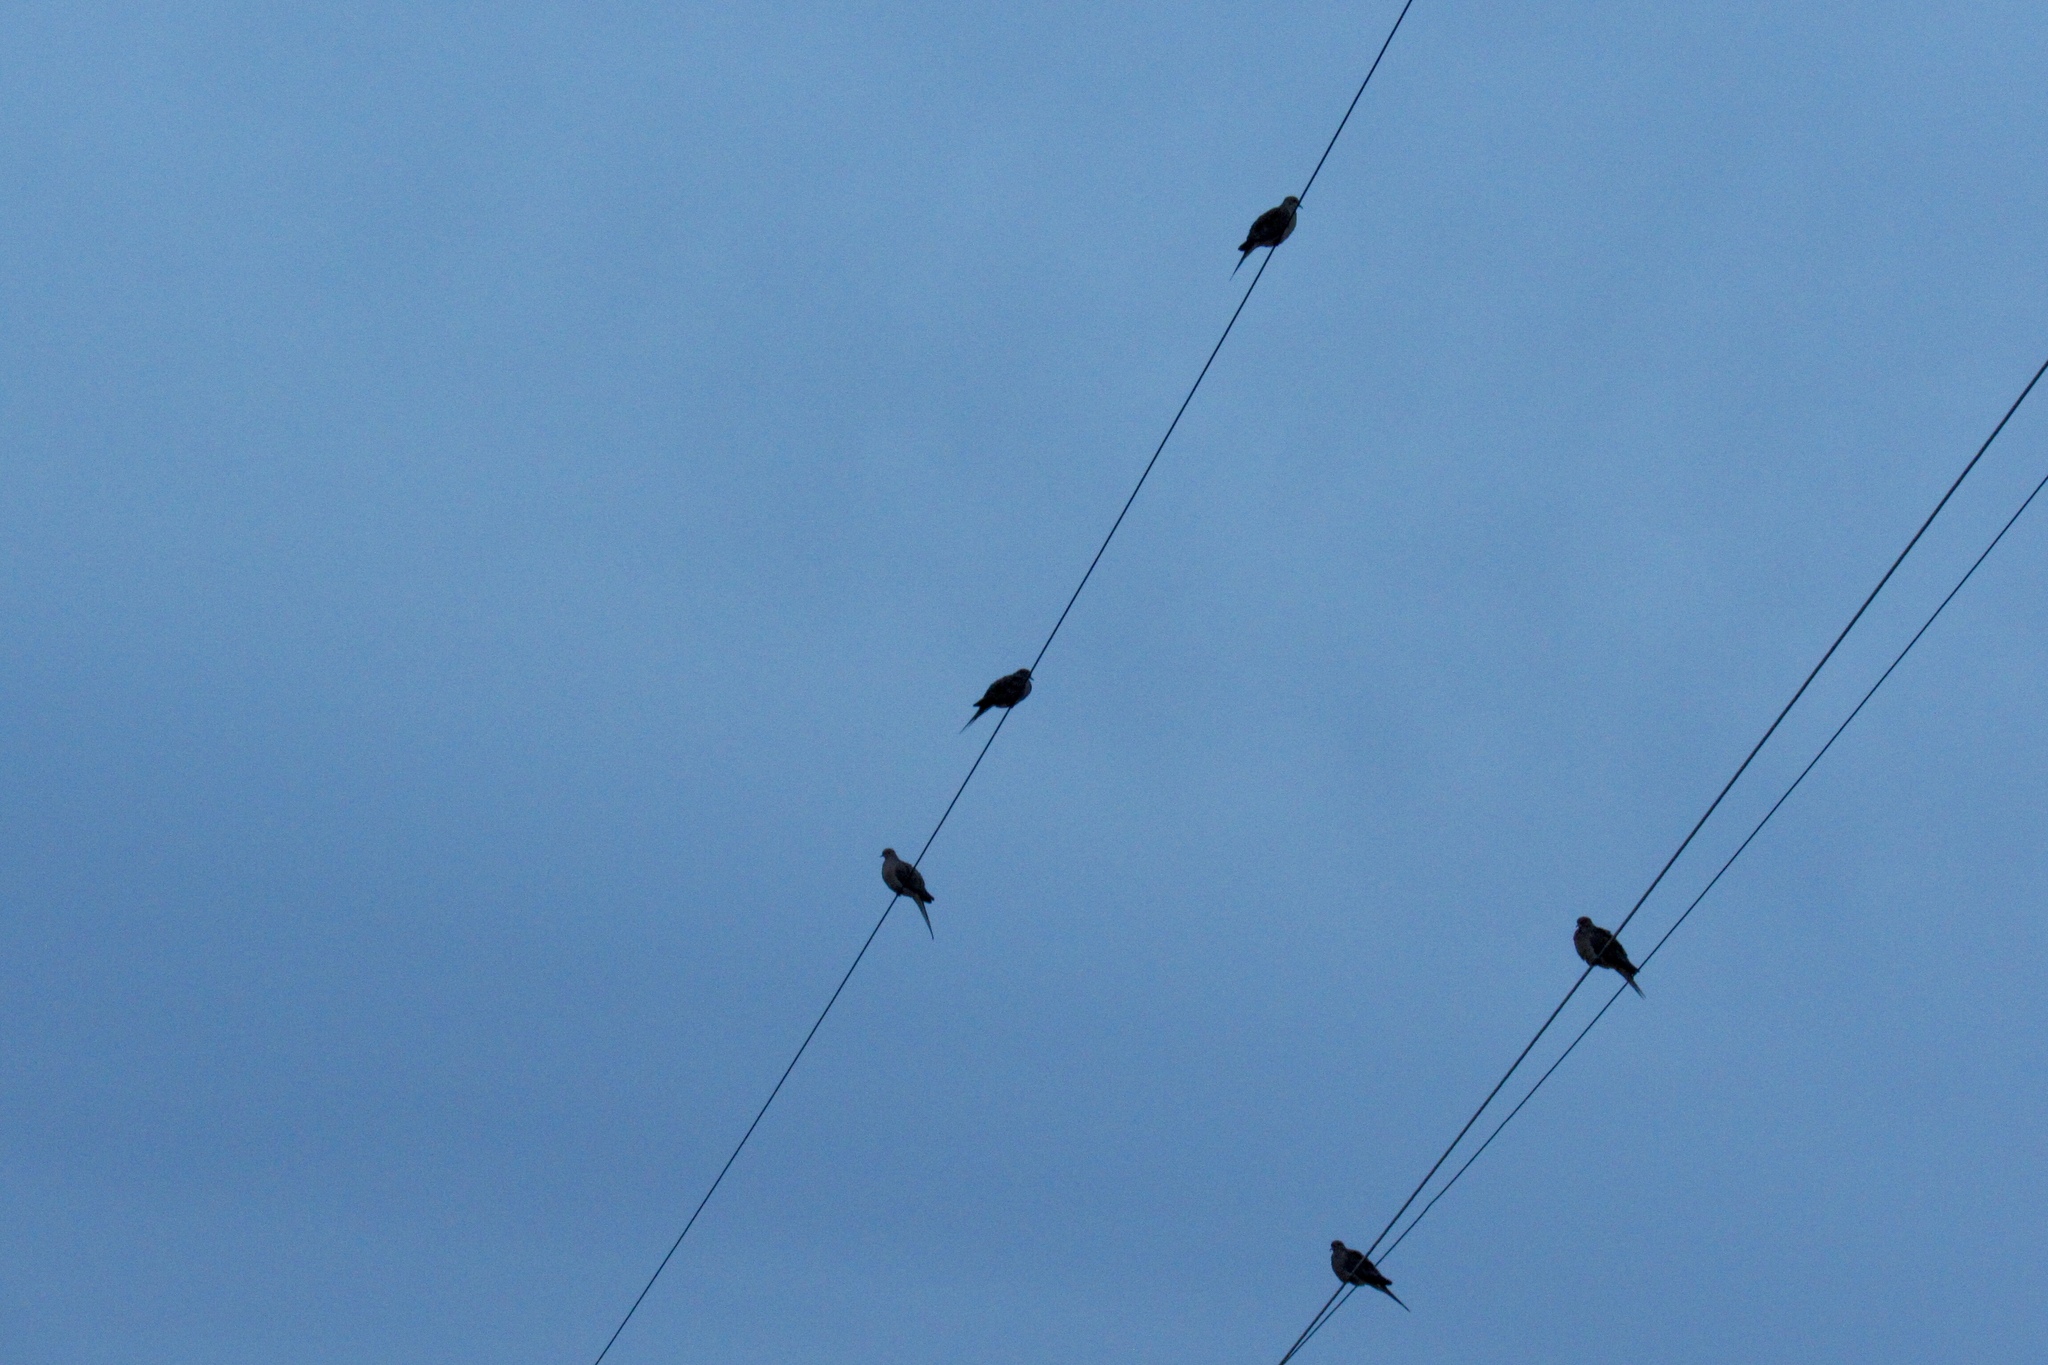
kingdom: Animalia
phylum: Chordata
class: Aves
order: Columbiformes
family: Columbidae
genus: Zenaida
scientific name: Zenaida macroura
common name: Mourning dove
